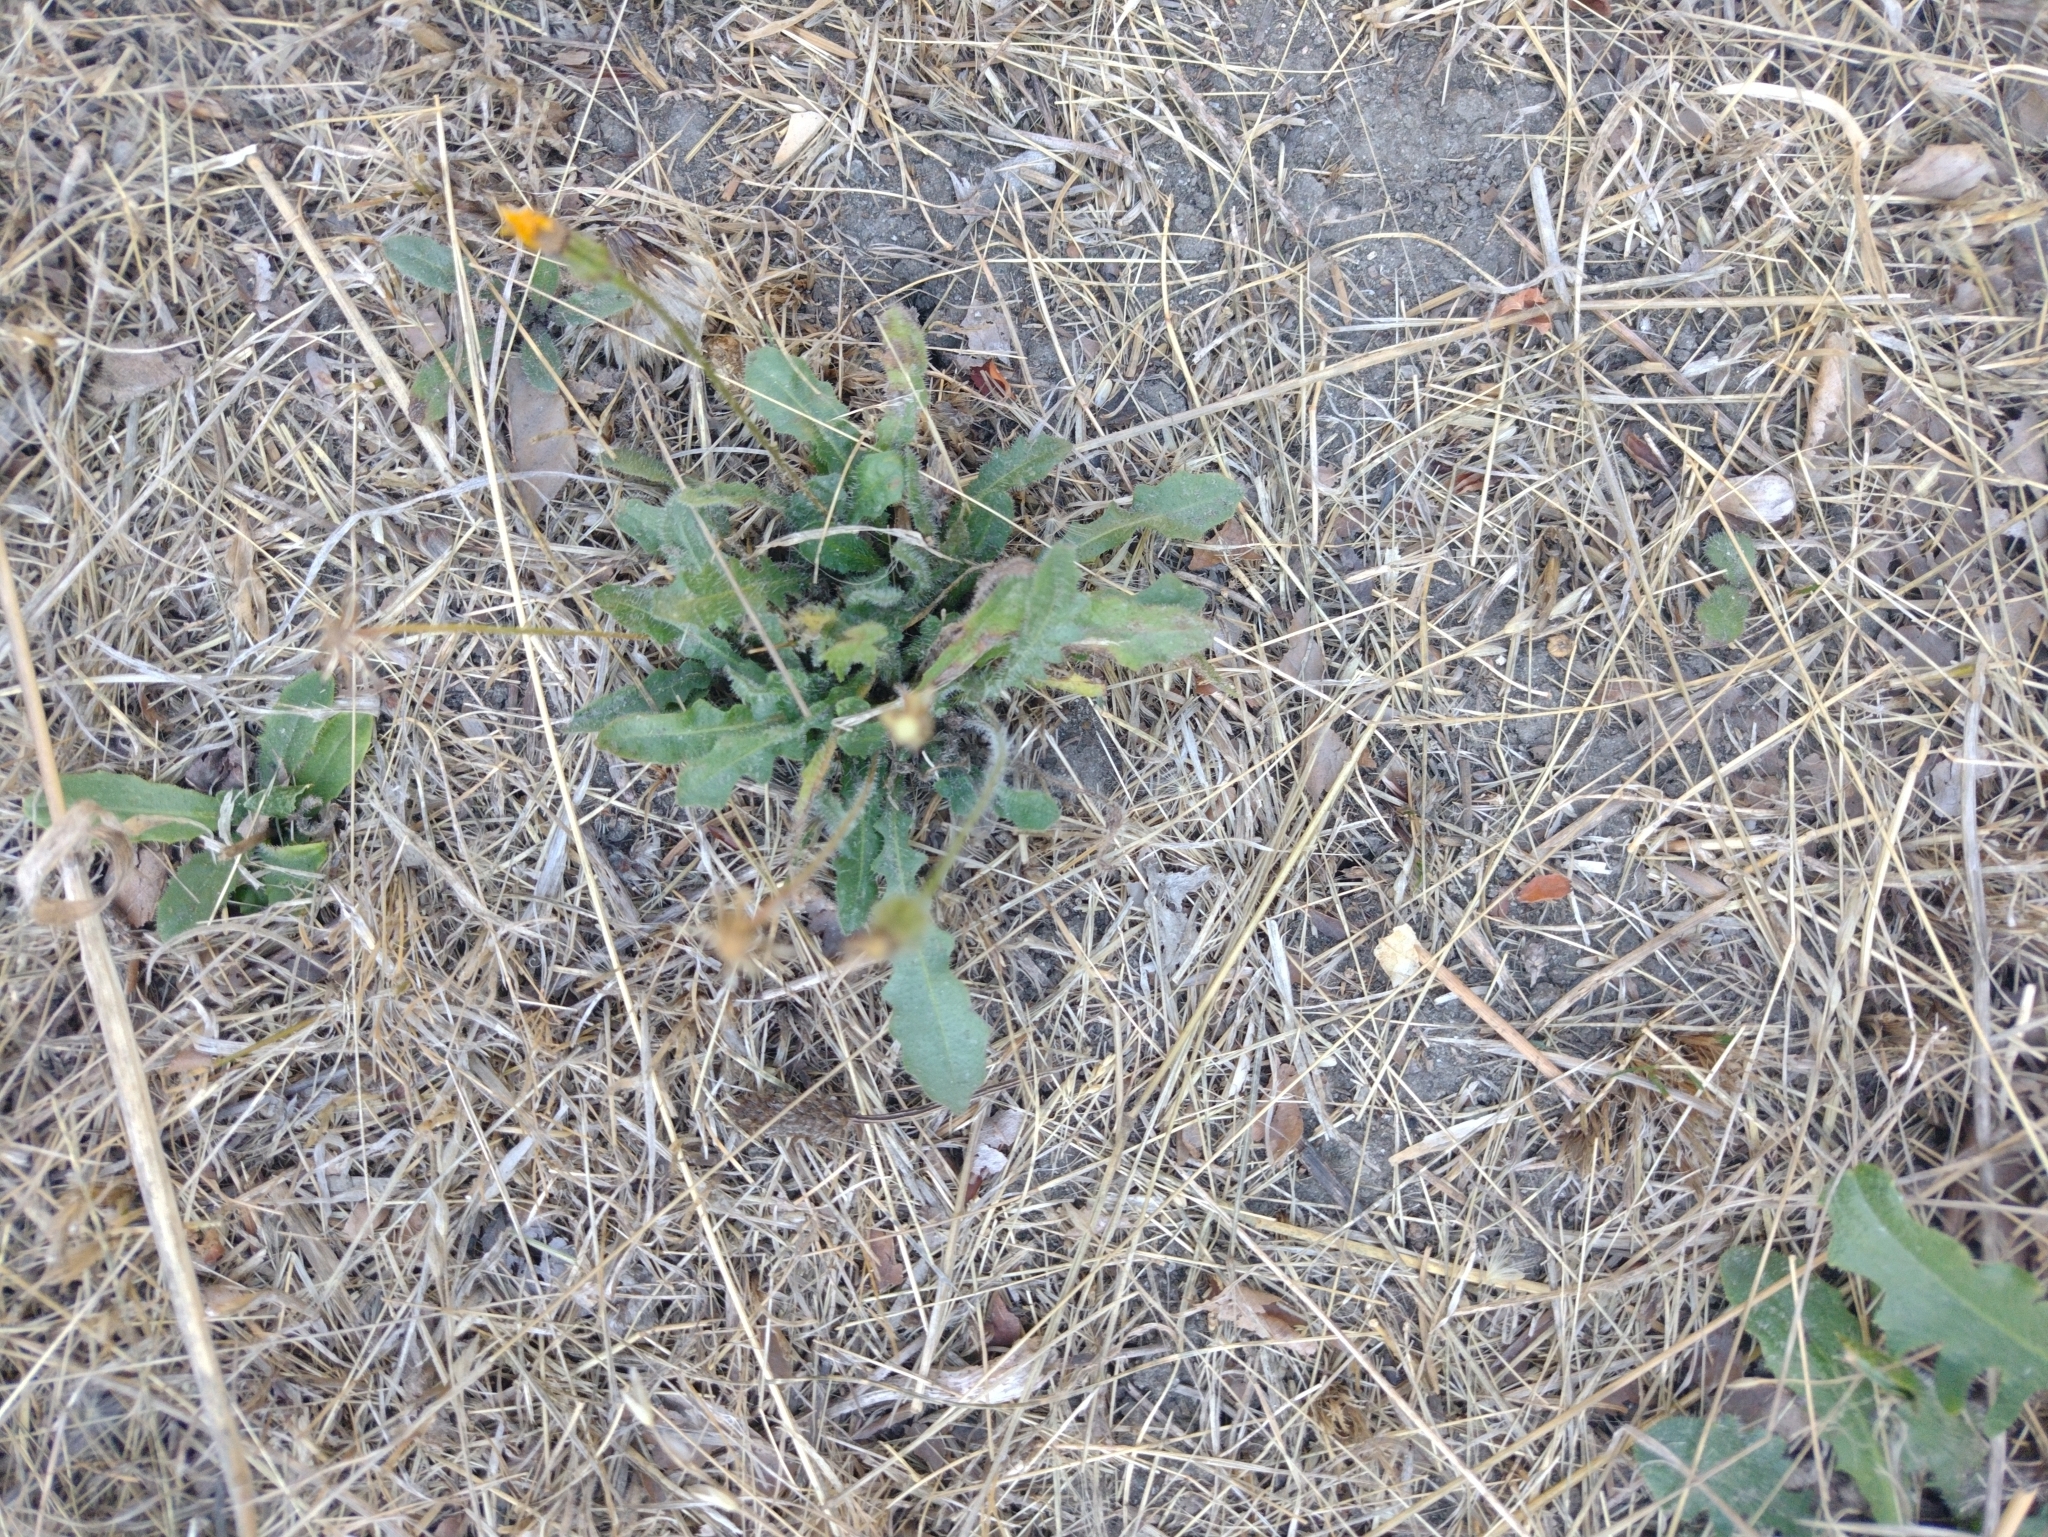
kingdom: Plantae
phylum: Tracheophyta
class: Magnoliopsida
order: Asterales
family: Asteraceae
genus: Hypochaeris
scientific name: Hypochaeris radicata
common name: Flatweed
